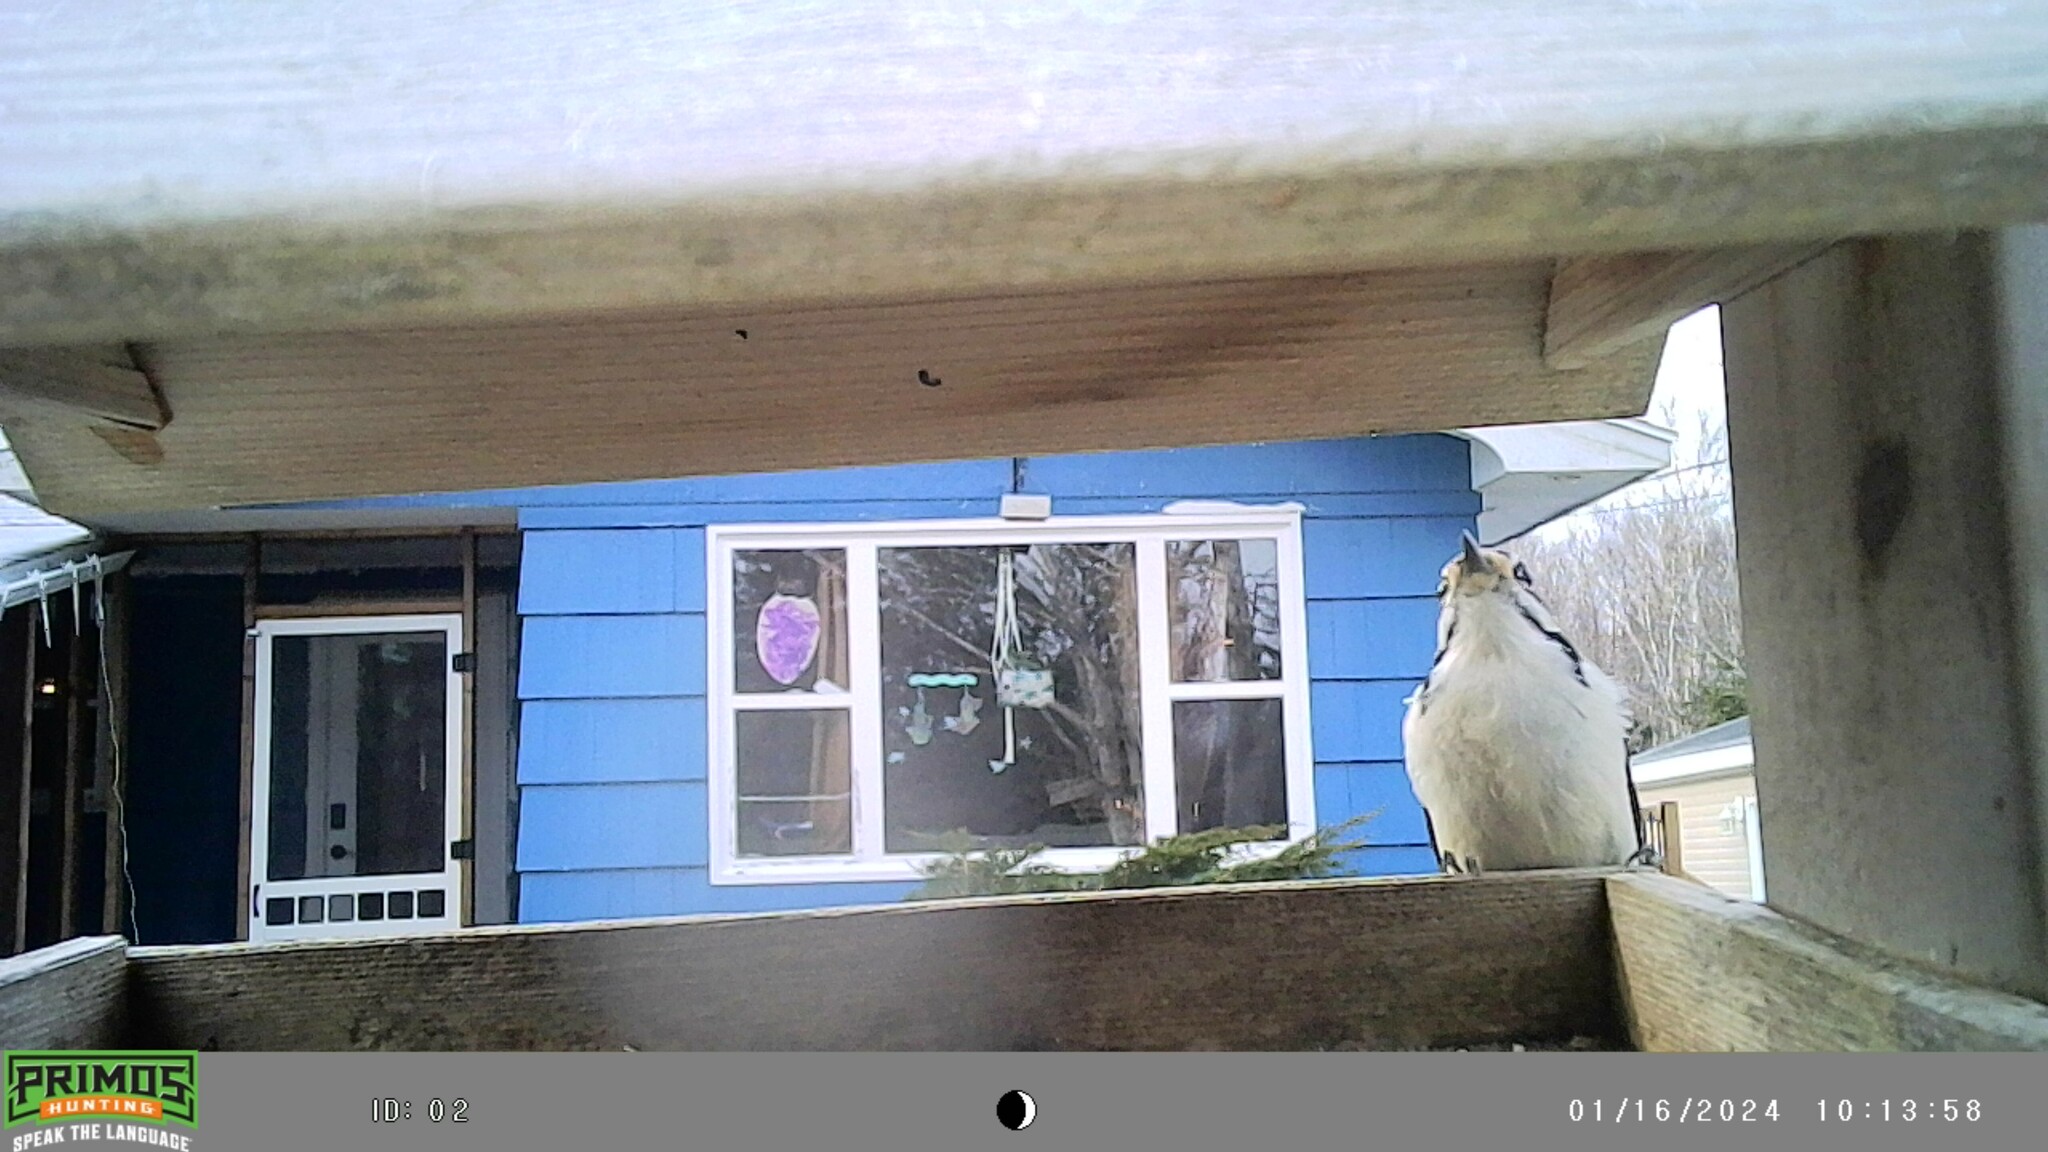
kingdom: Animalia
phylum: Chordata
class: Aves
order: Piciformes
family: Picidae
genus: Leuconotopicus
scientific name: Leuconotopicus villosus
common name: Hairy woodpecker
